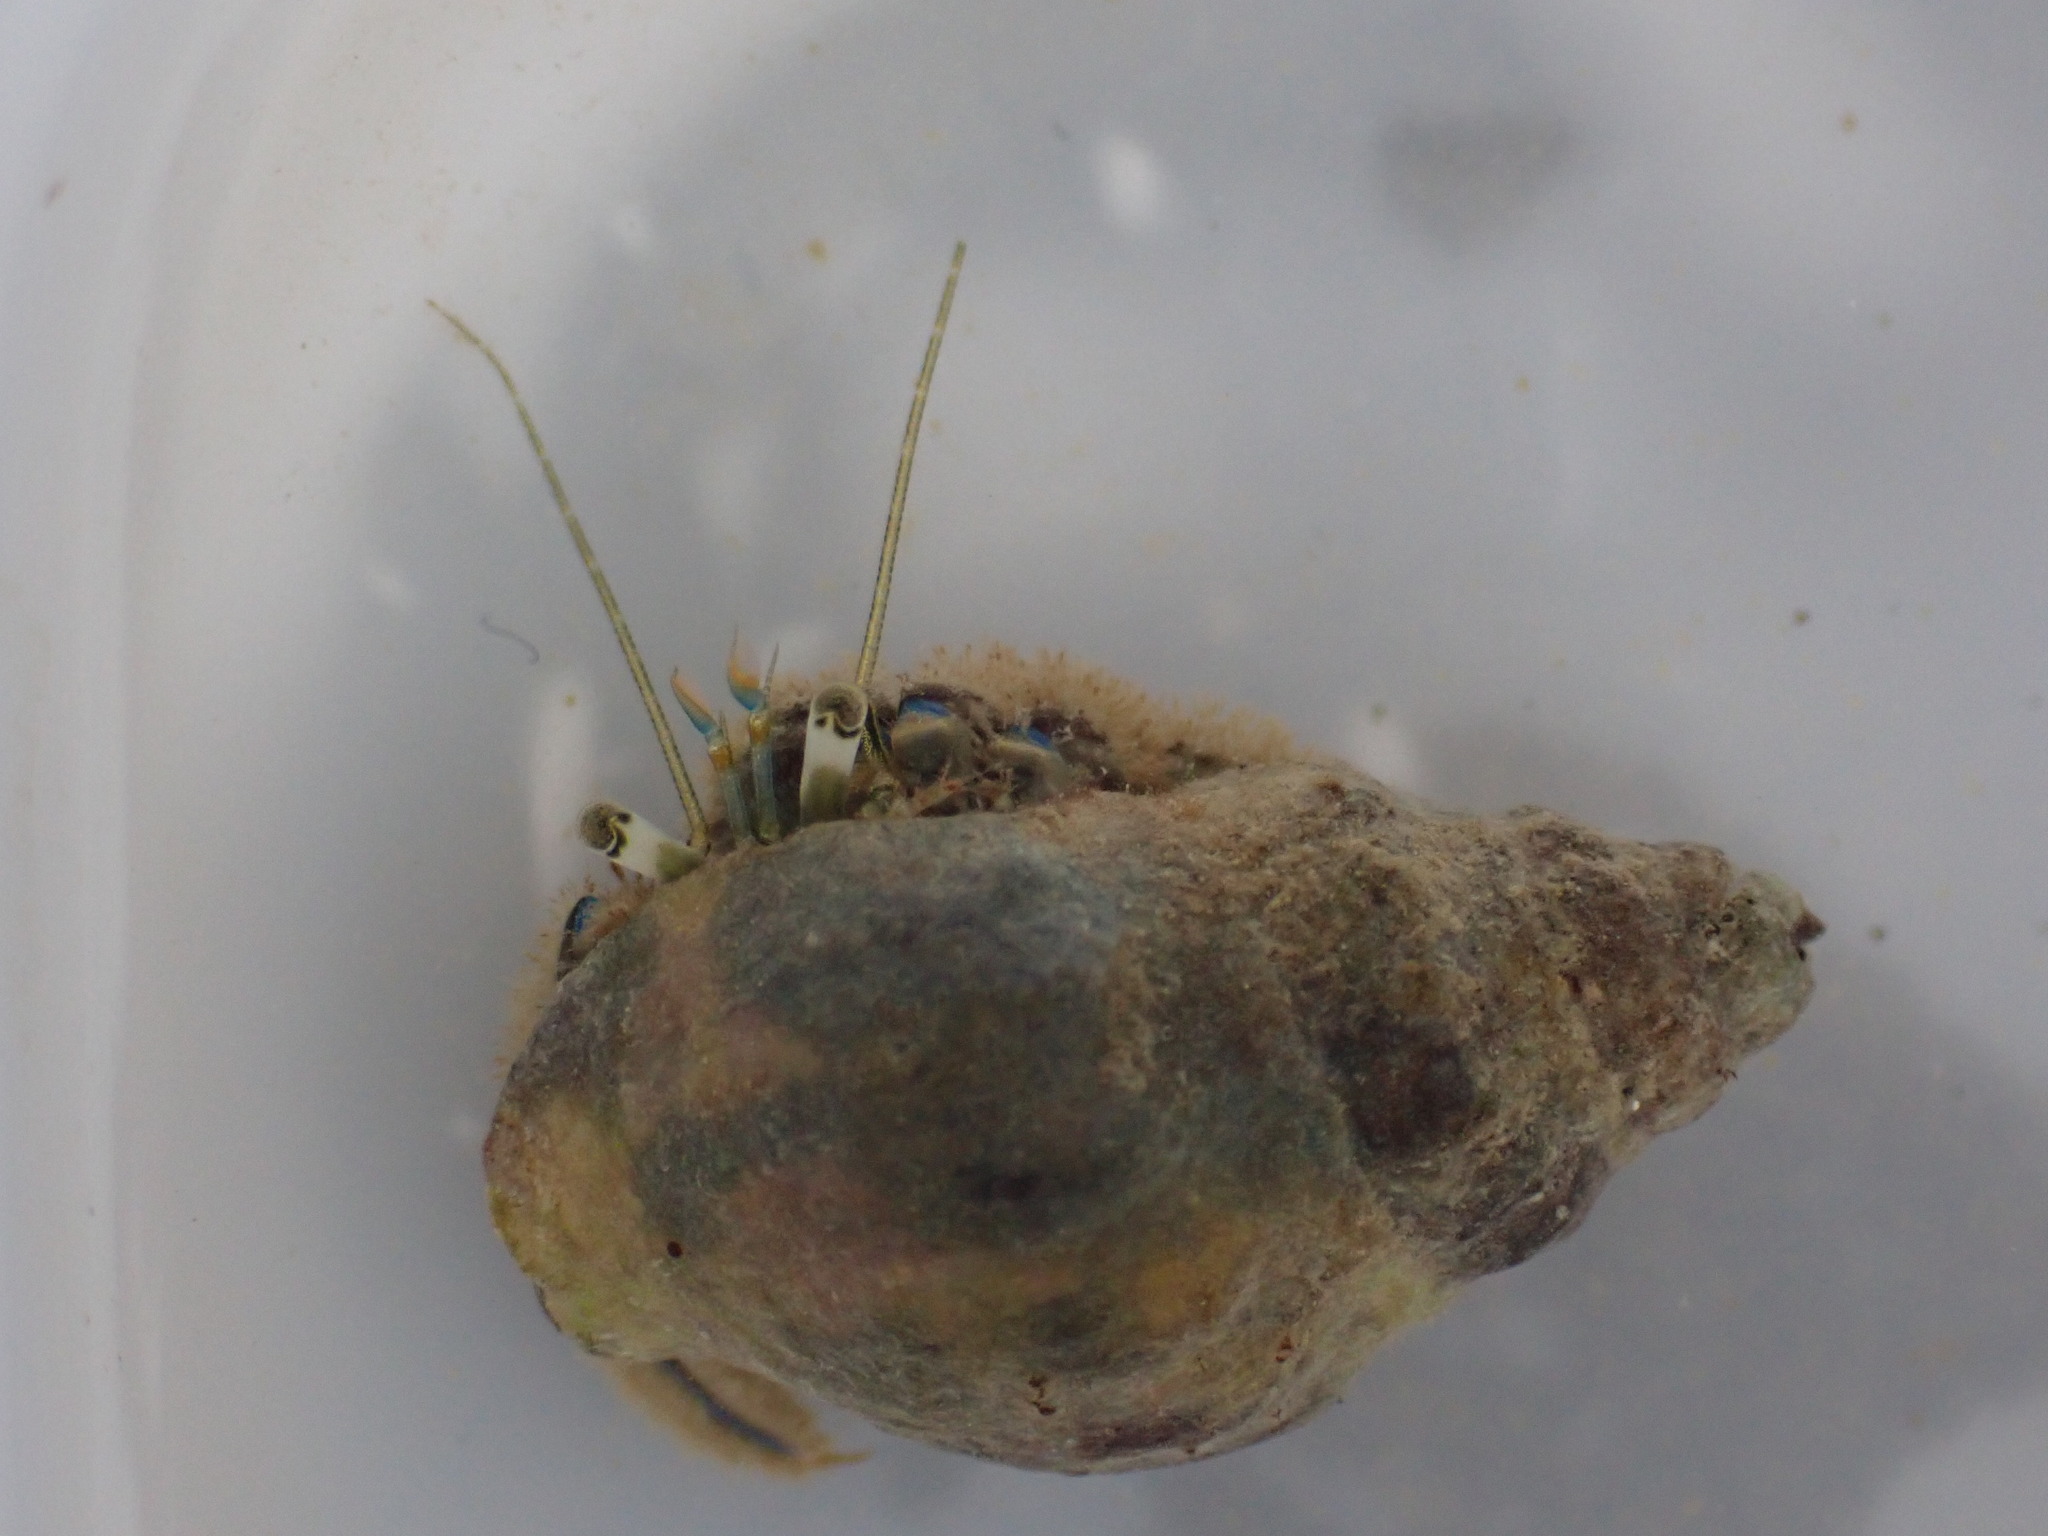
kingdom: Animalia
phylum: Arthropoda
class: Malacostraca
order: Decapoda
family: Paguridae
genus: Pagurus
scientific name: Pagurus novizealandiae
